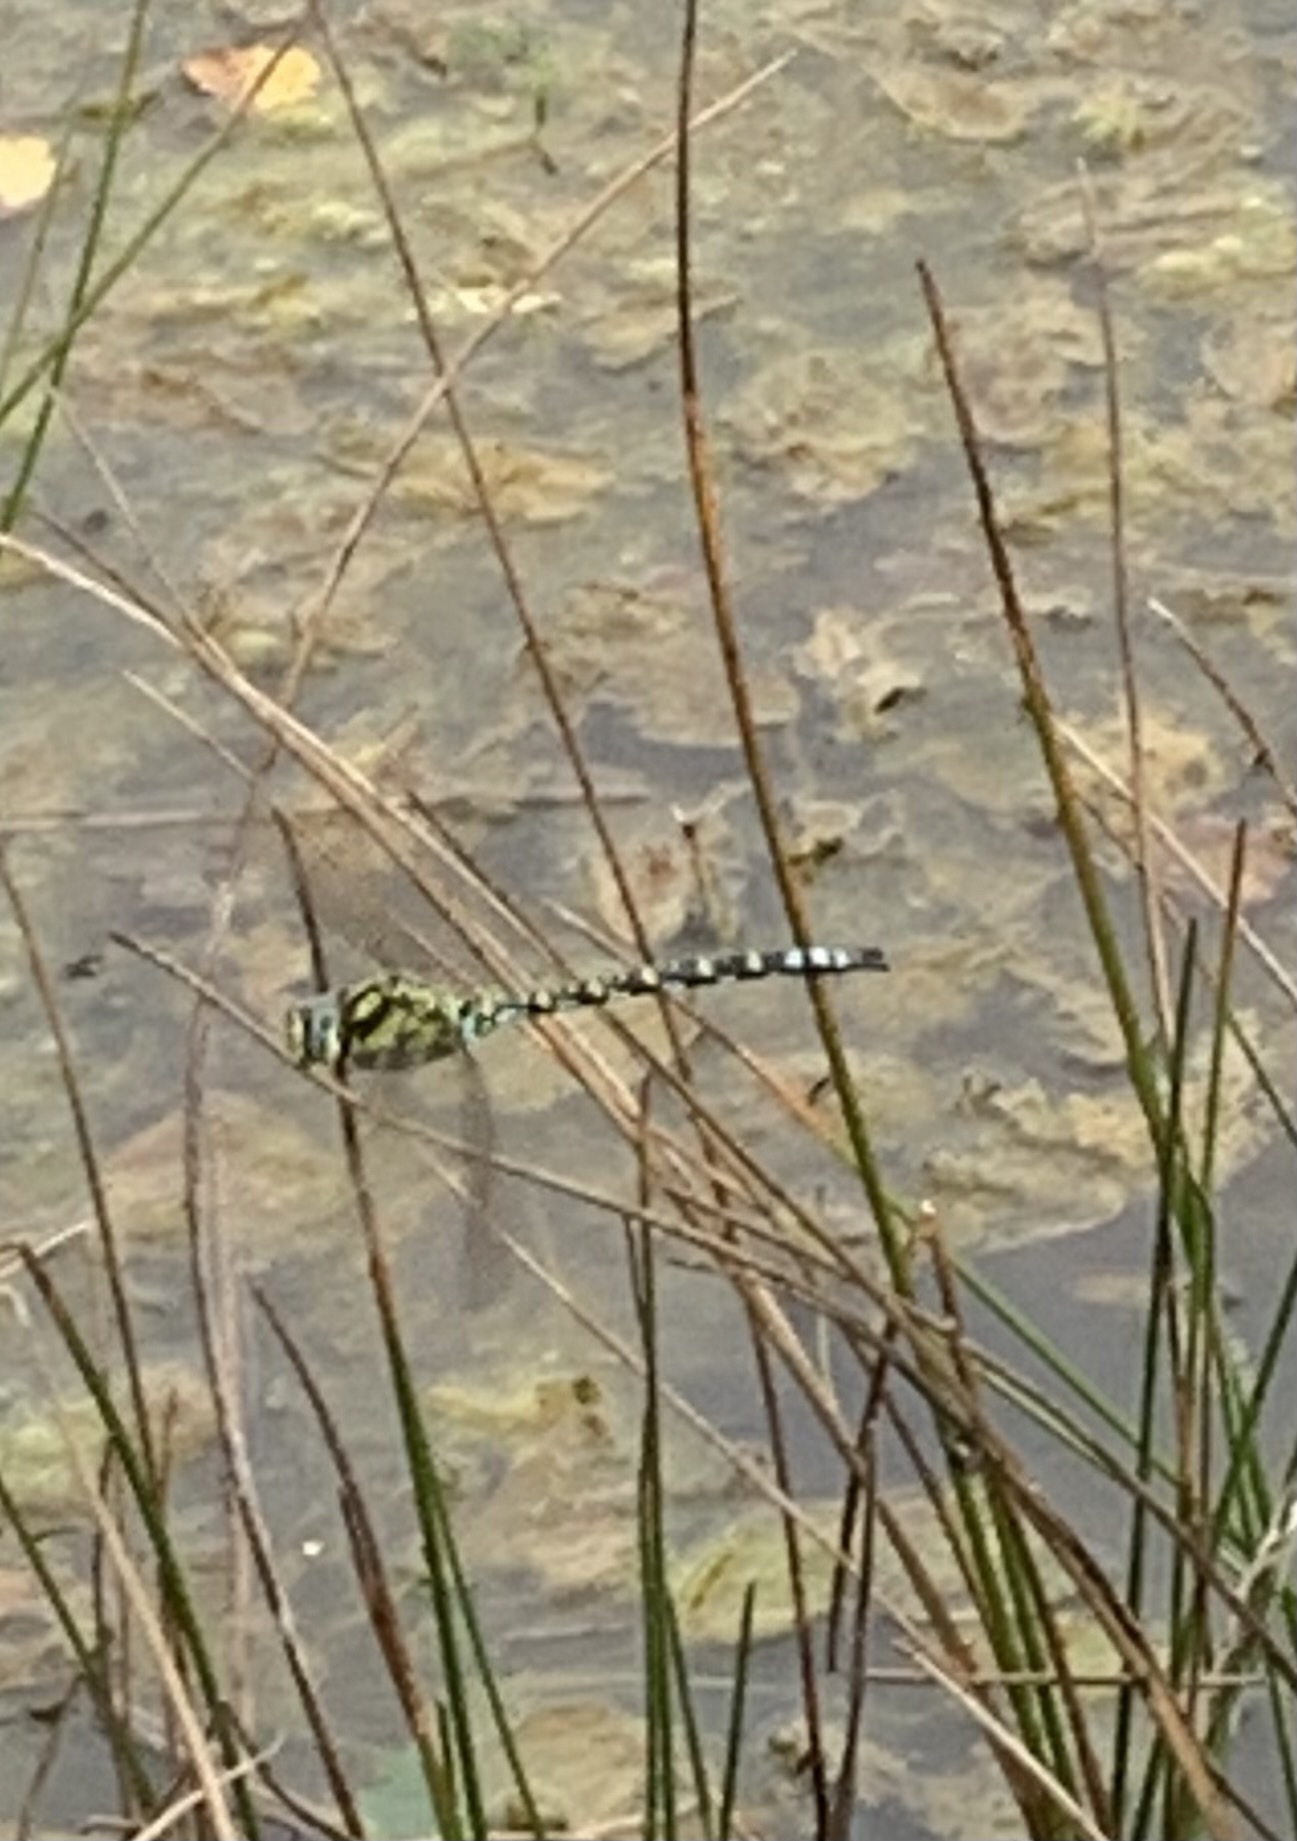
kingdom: Animalia
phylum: Arthropoda
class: Insecta
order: Odonata
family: Aeshnidae
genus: Aeshna
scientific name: Aeshna cyanea
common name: Southern hawker
